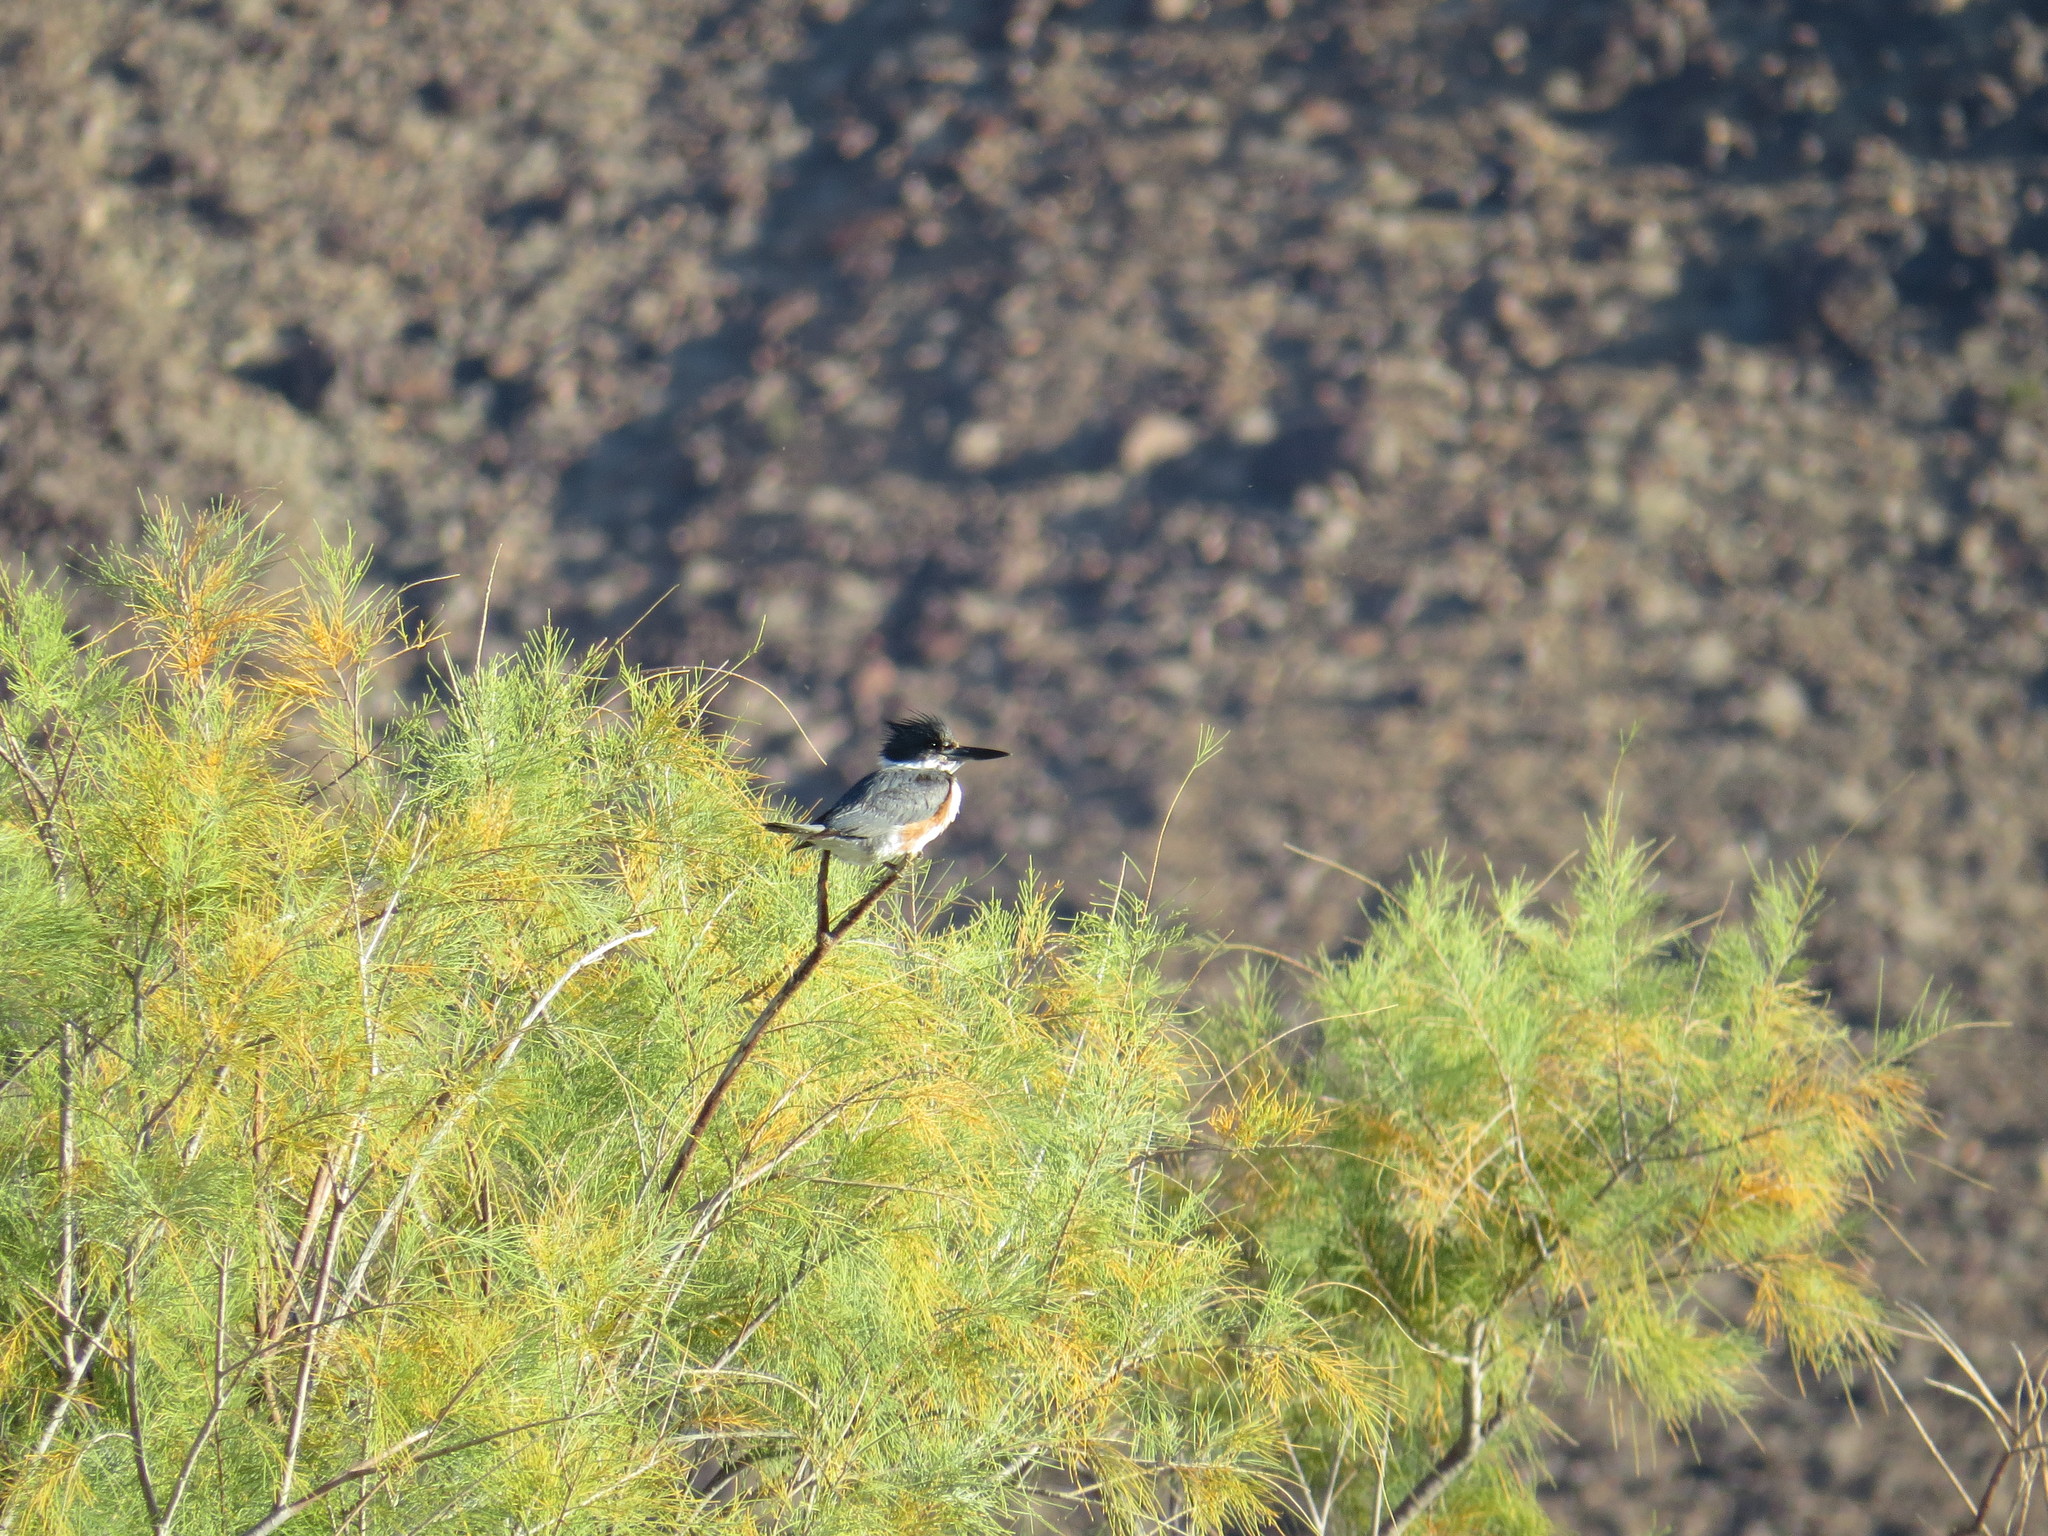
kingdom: Animalia
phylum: Chordata
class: Aves
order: Coraciiformes
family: Alcedinidae
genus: Megaceryle
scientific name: Megaceryle alcyon
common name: Belted kingfisher
